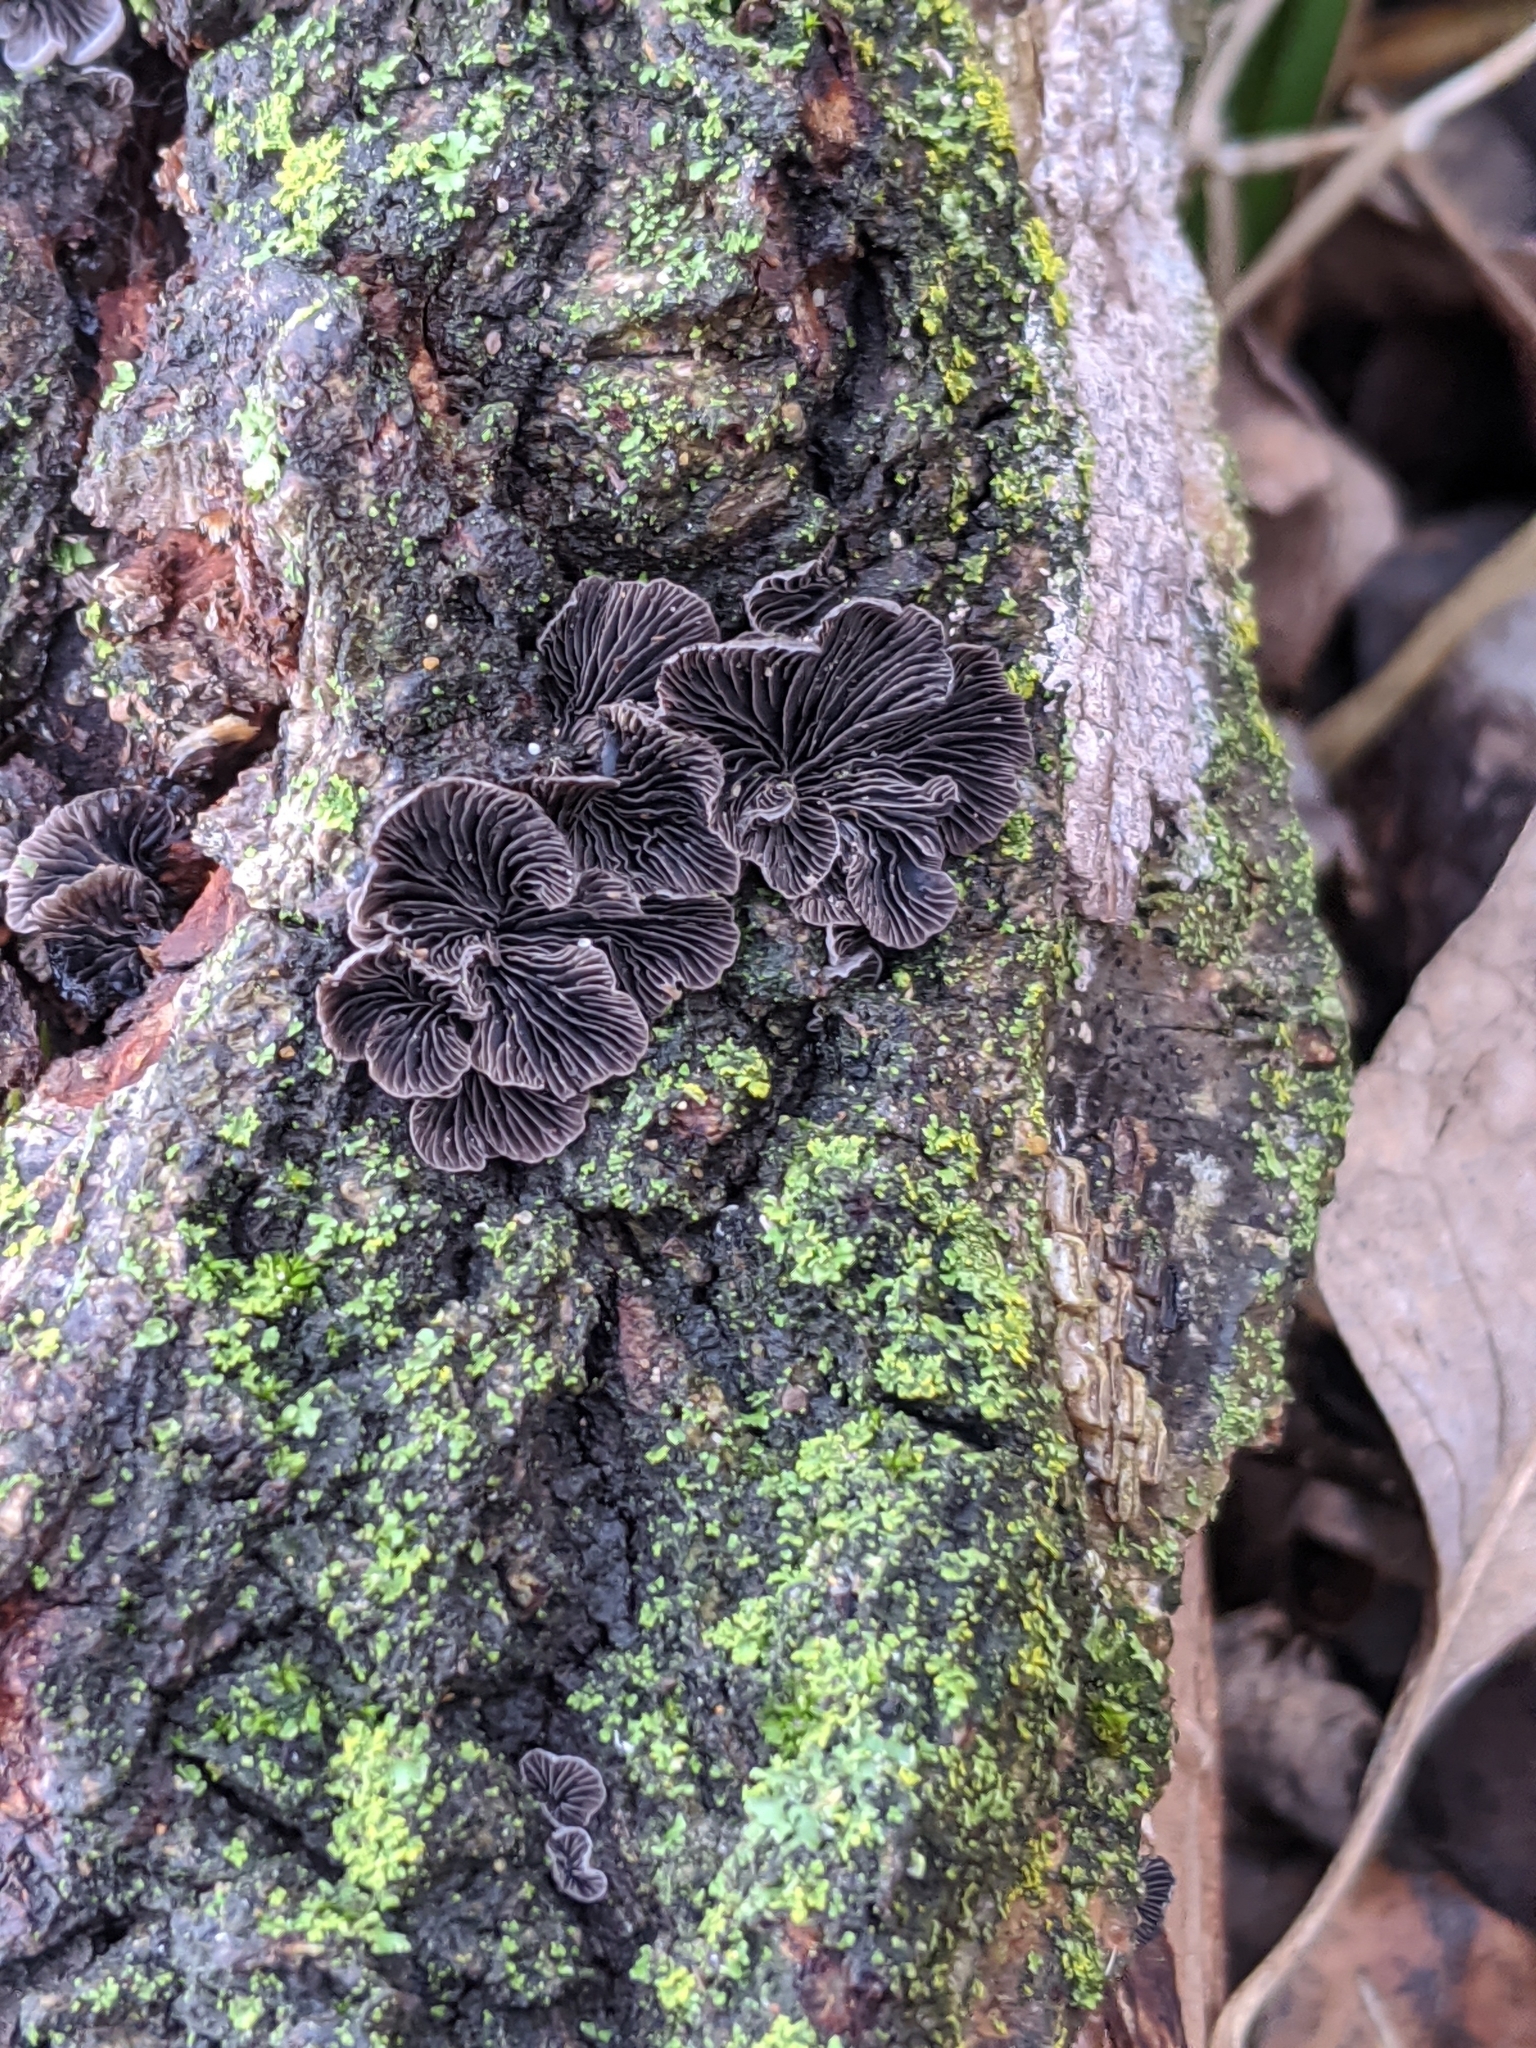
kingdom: Fungi
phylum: Basidiomycota
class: Agaricomycetes
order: Agaricales
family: Pleurotaceae
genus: Resupinatus
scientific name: Resupinatus applicatus
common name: Smoked oysterling
